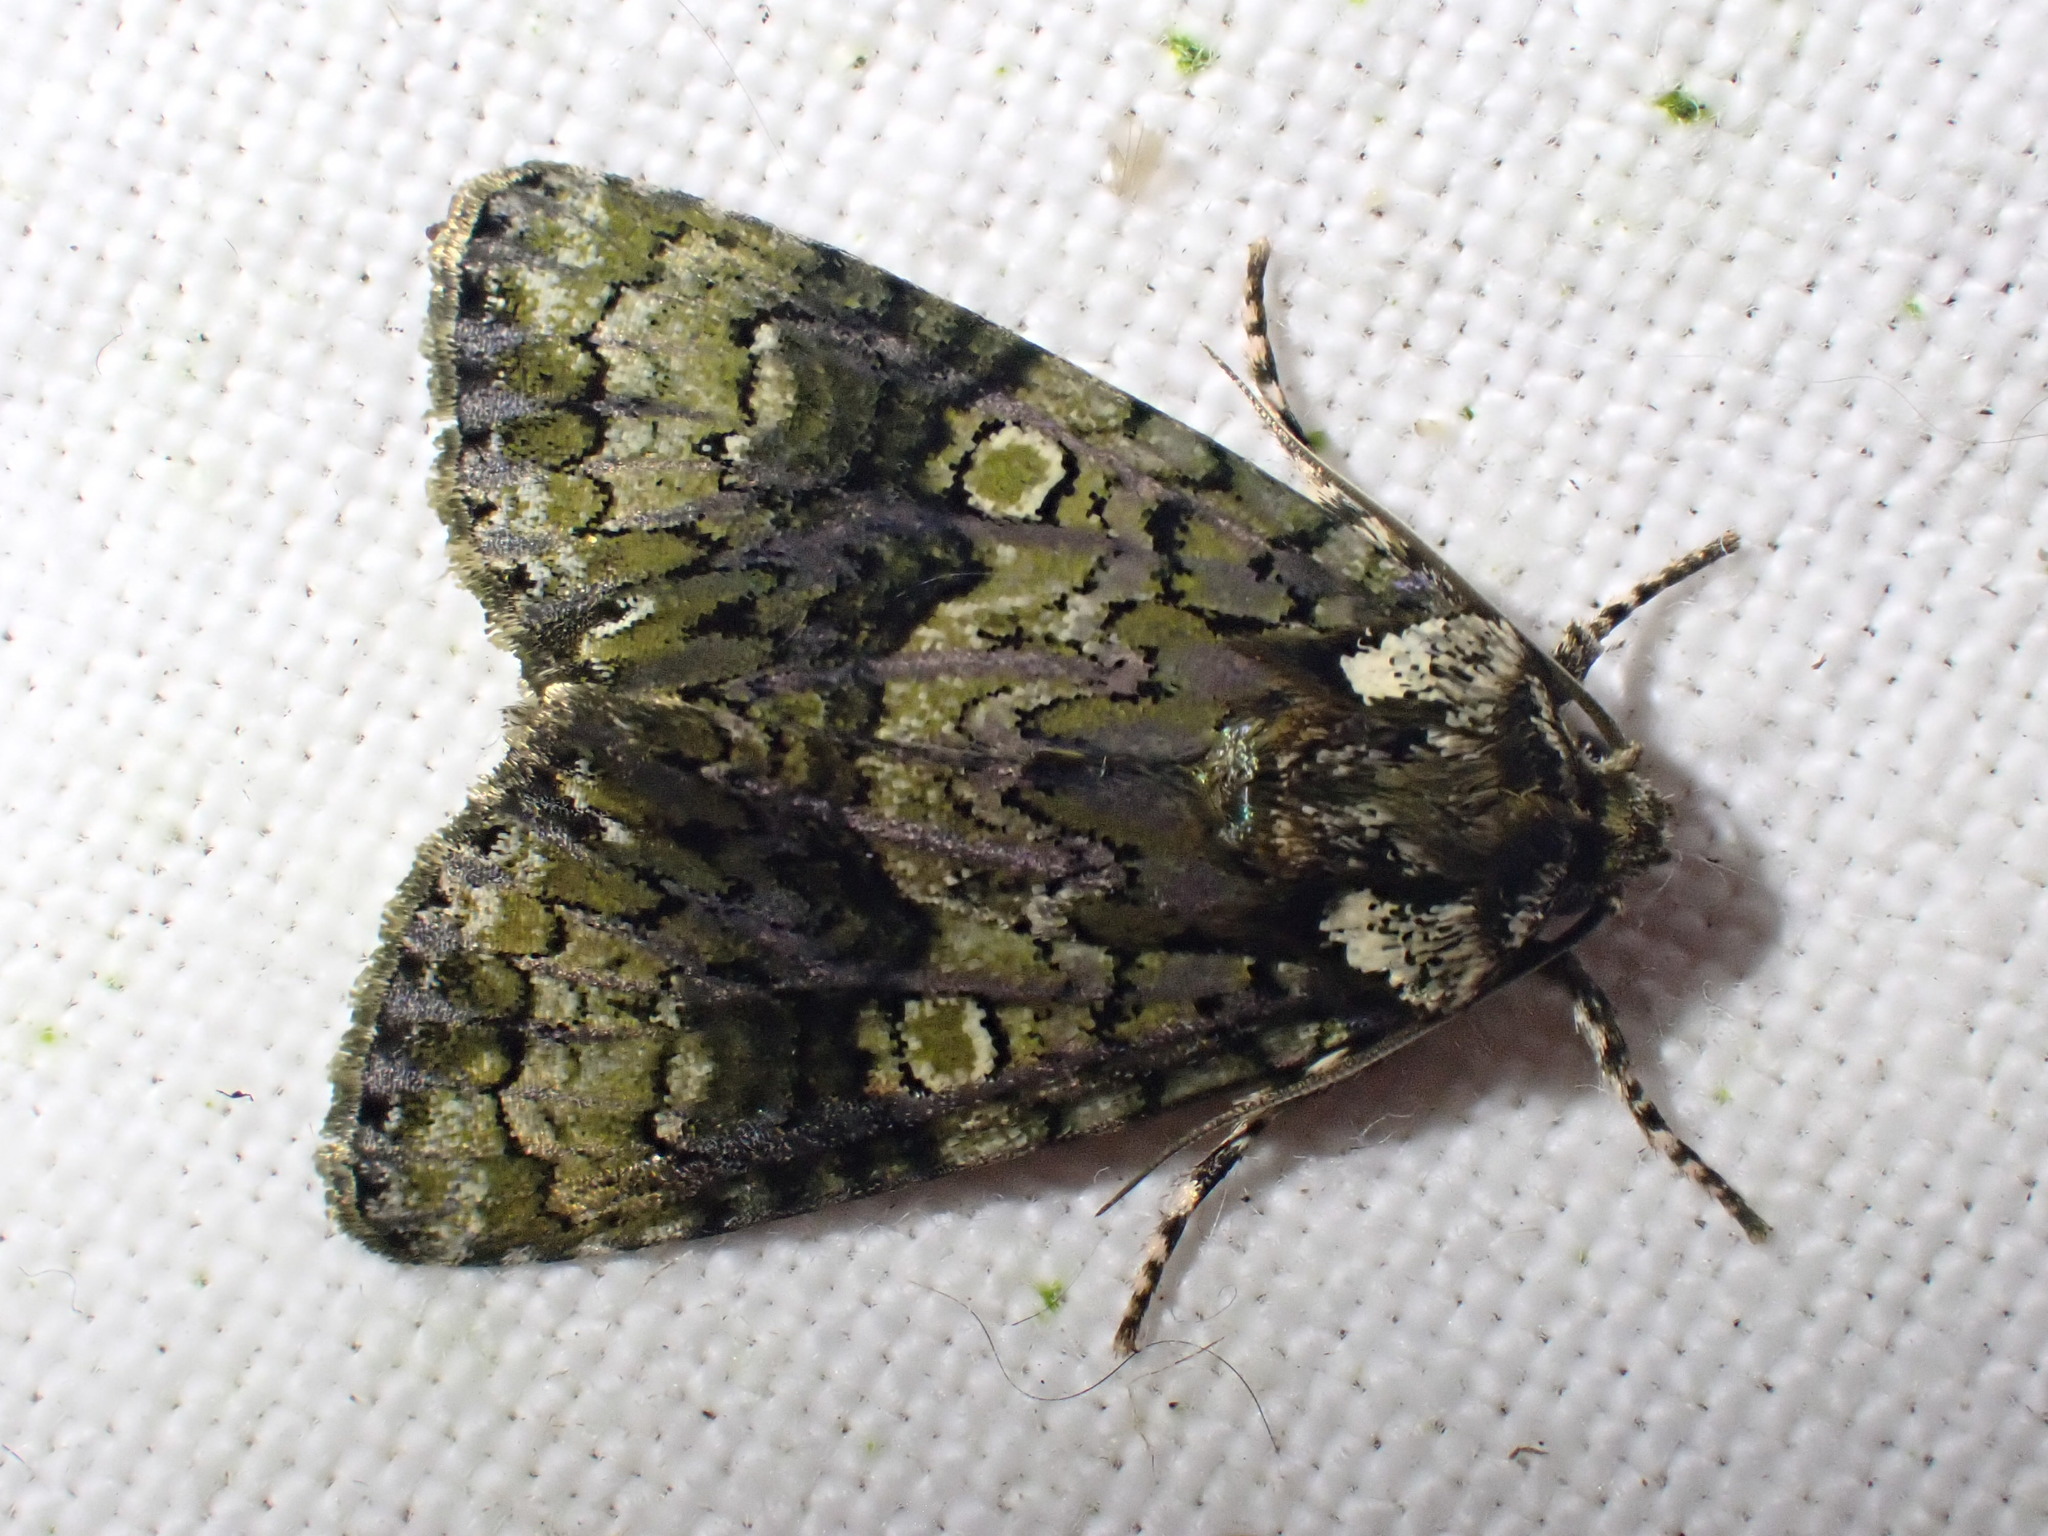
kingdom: Animalia
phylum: Arthropoda
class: Insecta
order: Lepidoptera
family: Noctuidae
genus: Craniophora
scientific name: Craniophora ligustri
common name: Coronet
